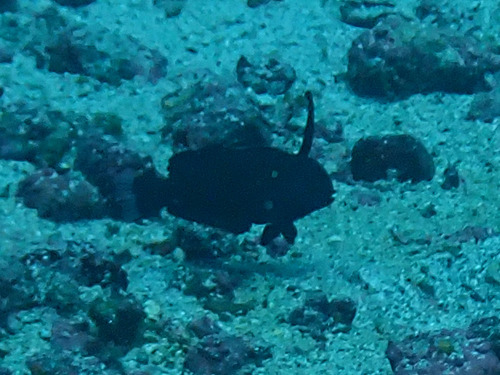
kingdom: Animalia
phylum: Chordata
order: Perciformes
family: Labridae
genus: Iniistius
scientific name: Iniistius pavo
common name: Peacock wrasse
